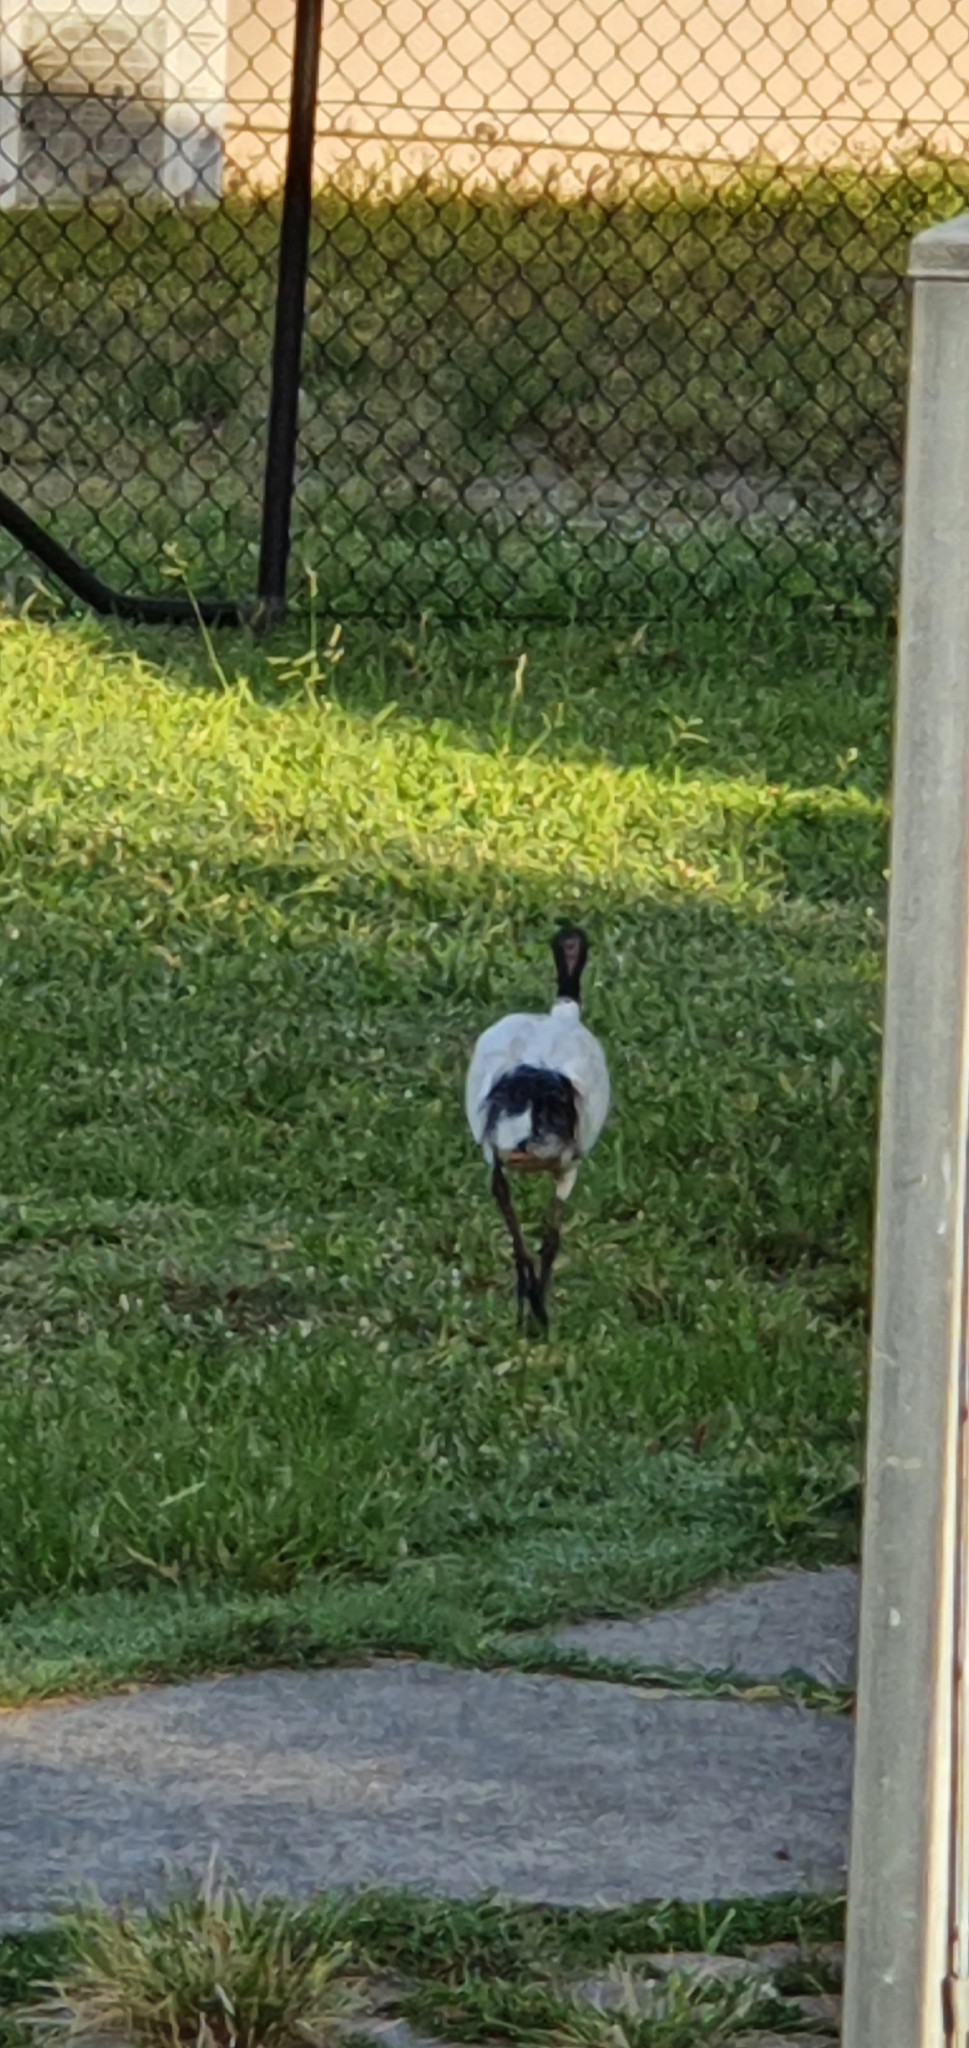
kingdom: Animalia
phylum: Chordata
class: Aves
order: Pelecaniformes
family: Threskiornithidae
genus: Threskiornis
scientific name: Threskiornis molucca
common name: Australian white ibis
